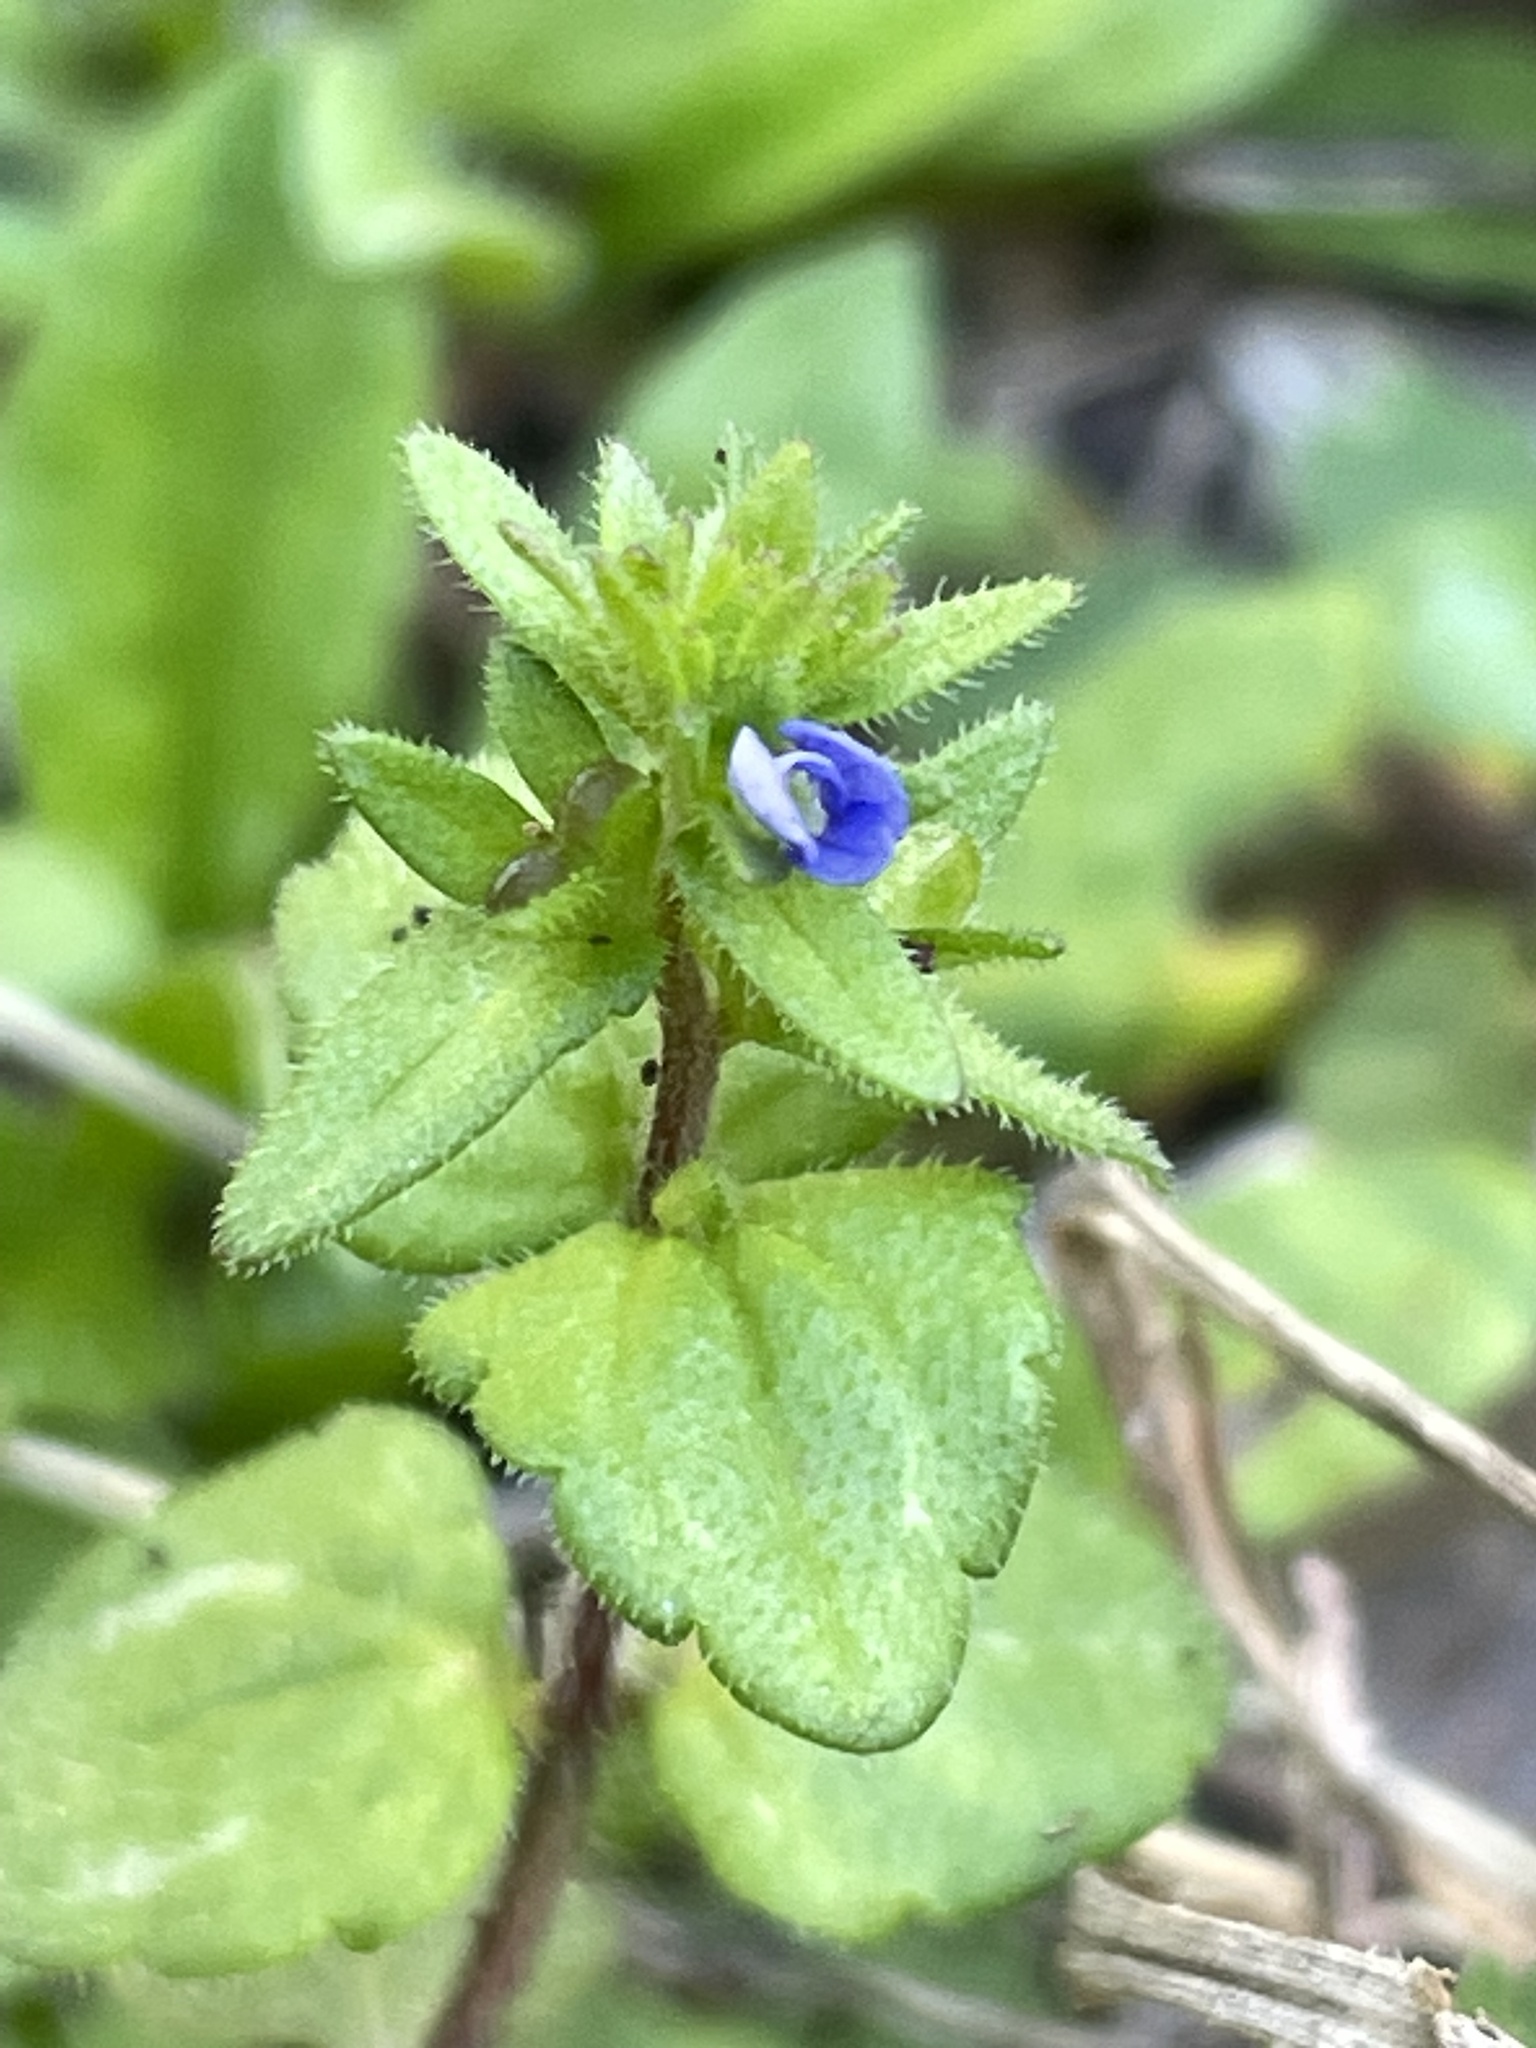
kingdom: Plantae
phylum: Tracheophyta
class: Magnoliopsida
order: Lamiales
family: Plantaginaceae
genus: Veronica
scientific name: Veronica arvensis
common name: Corn speedwell
